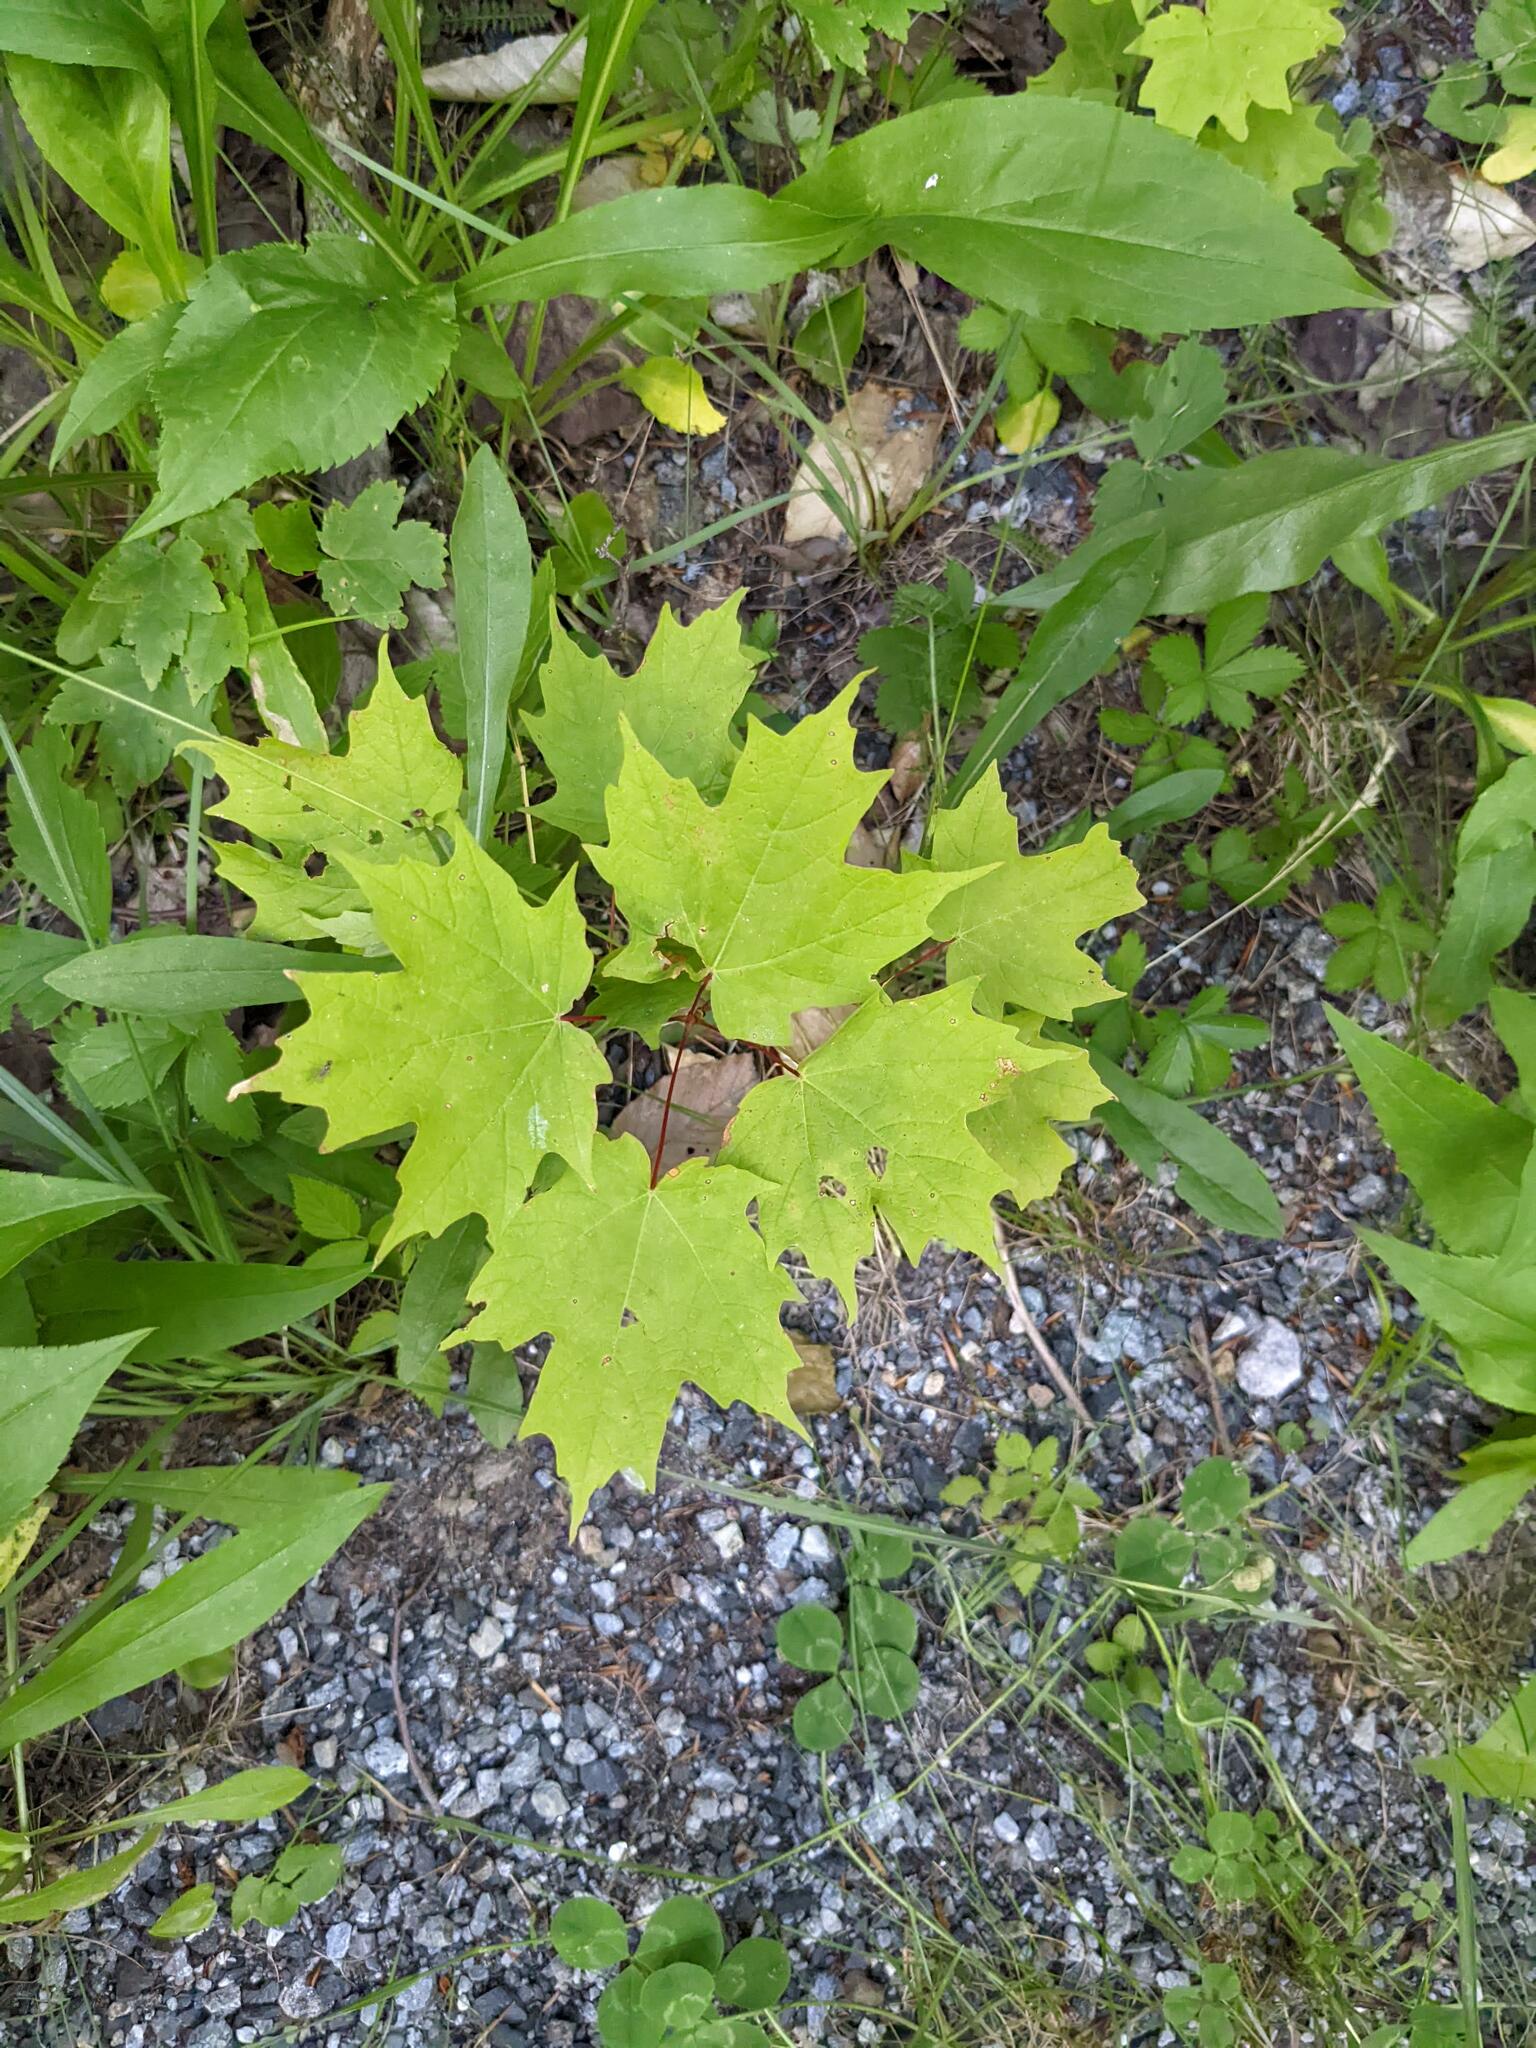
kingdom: Plantae
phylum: Tracheophyta
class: Magnoliopsida
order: Sapindales
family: Sapindaceae
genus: Acer
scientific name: Acer saccharum
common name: Sugar maple
